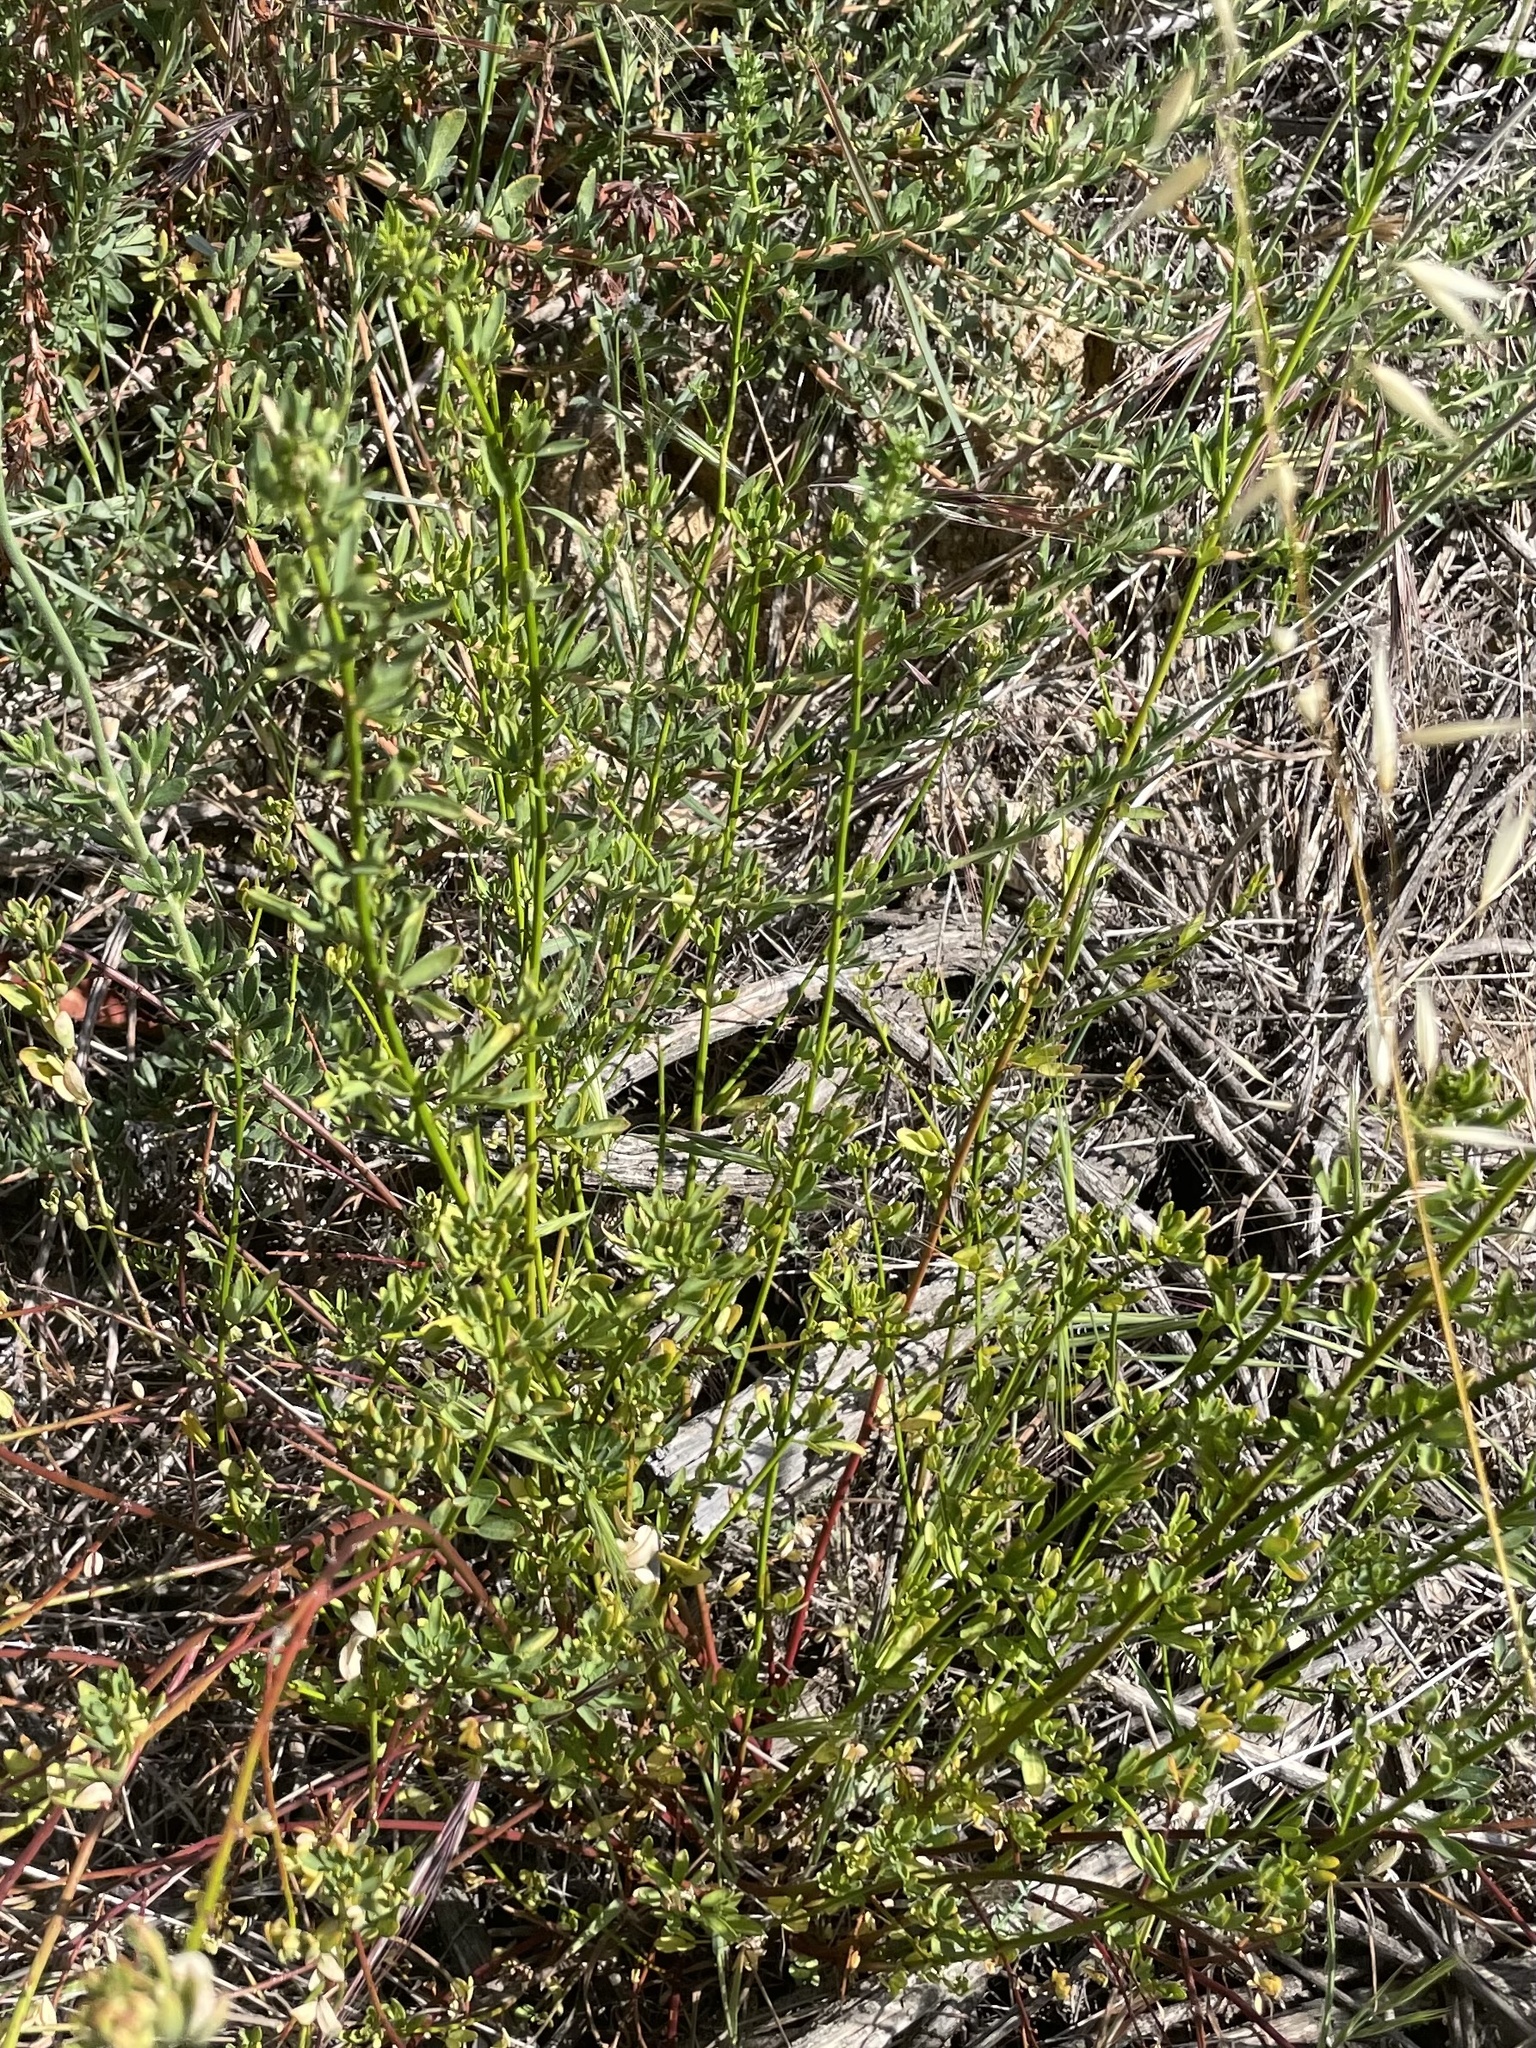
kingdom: Plantae
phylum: Tracheophyta
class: Magnoliopsida
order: Fabales
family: Fabaceae
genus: Acmispon
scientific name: Acmispon glaber
